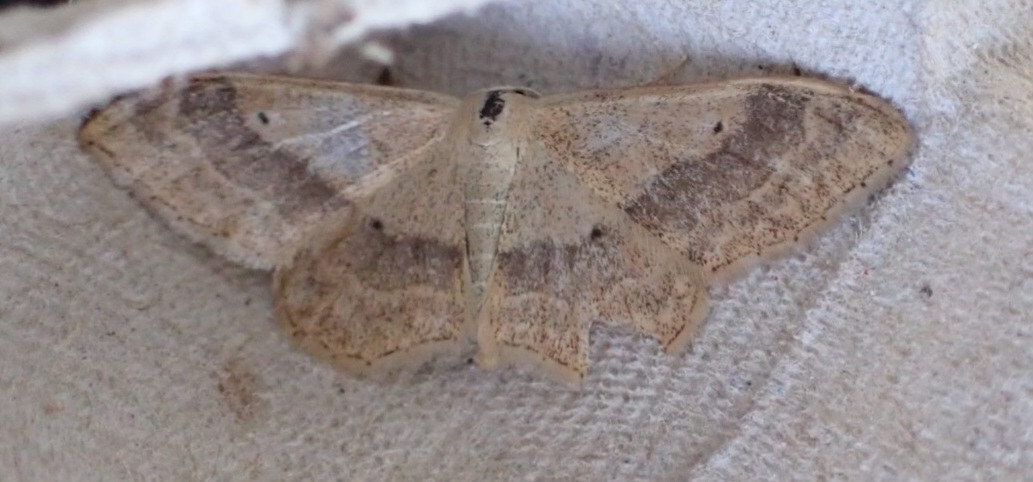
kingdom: Animalia
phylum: Arthropoda
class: Insecta
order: Lepidoptera
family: Geometridae
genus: Idaea
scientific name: Idaea aversata
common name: Riband wave
